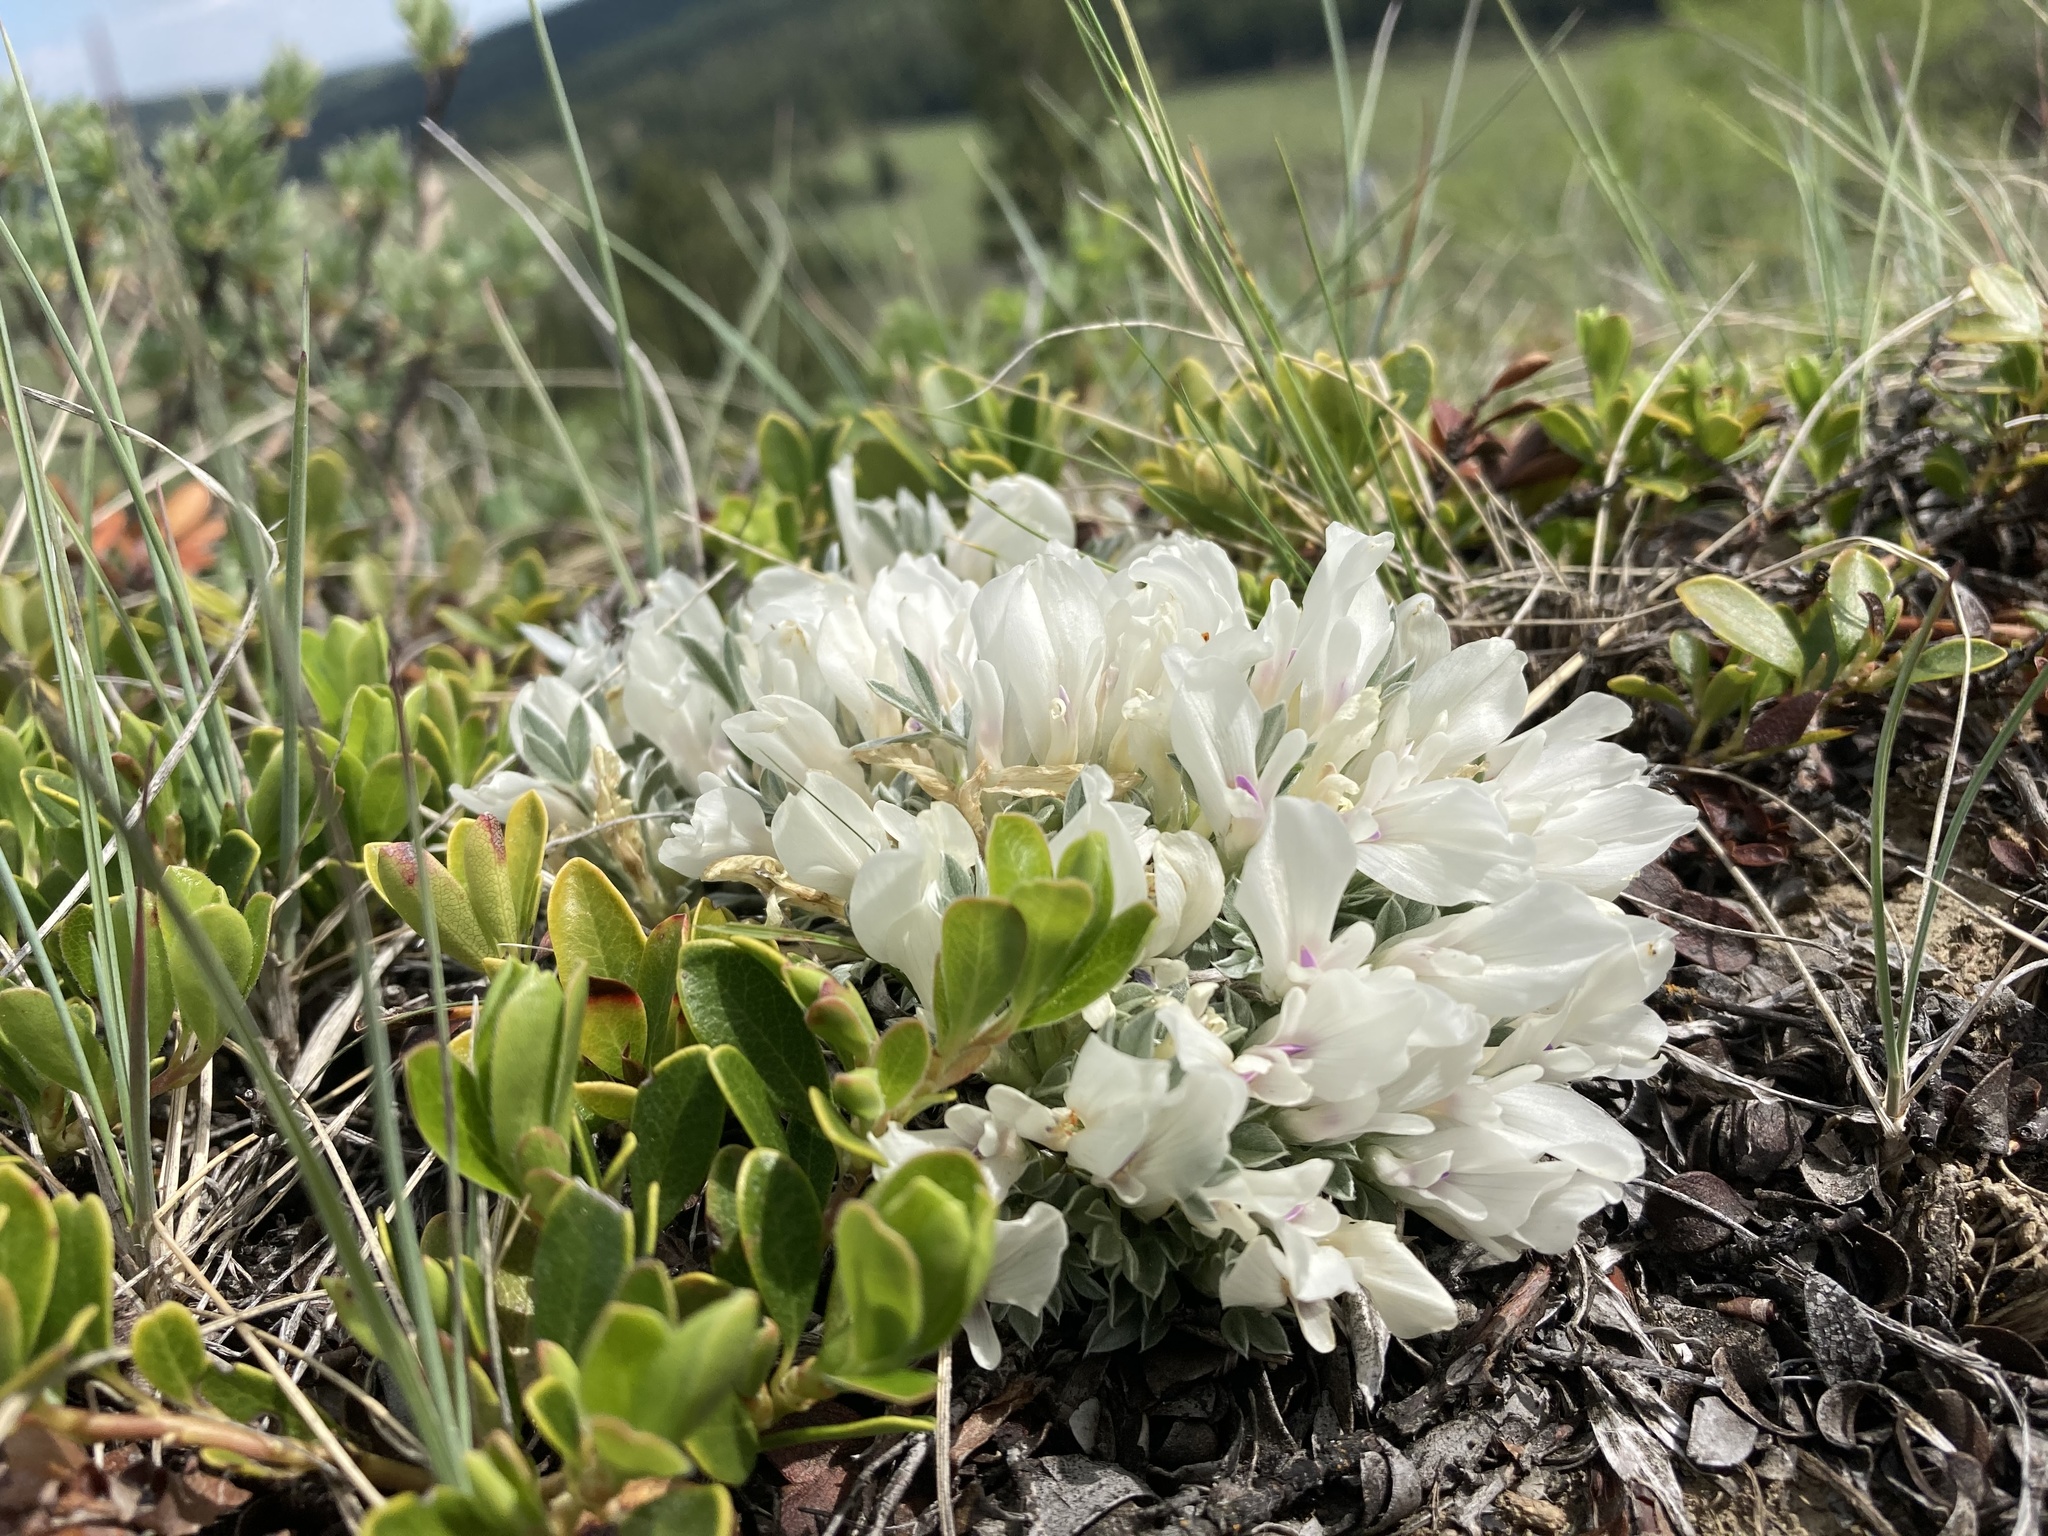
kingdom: Plantae
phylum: Tracheophyta
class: Magnoliopsida
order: Fabales
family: Fabaceae
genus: Astragalus
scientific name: Astragalus gilviflorus
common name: Cushion milk-vetch
